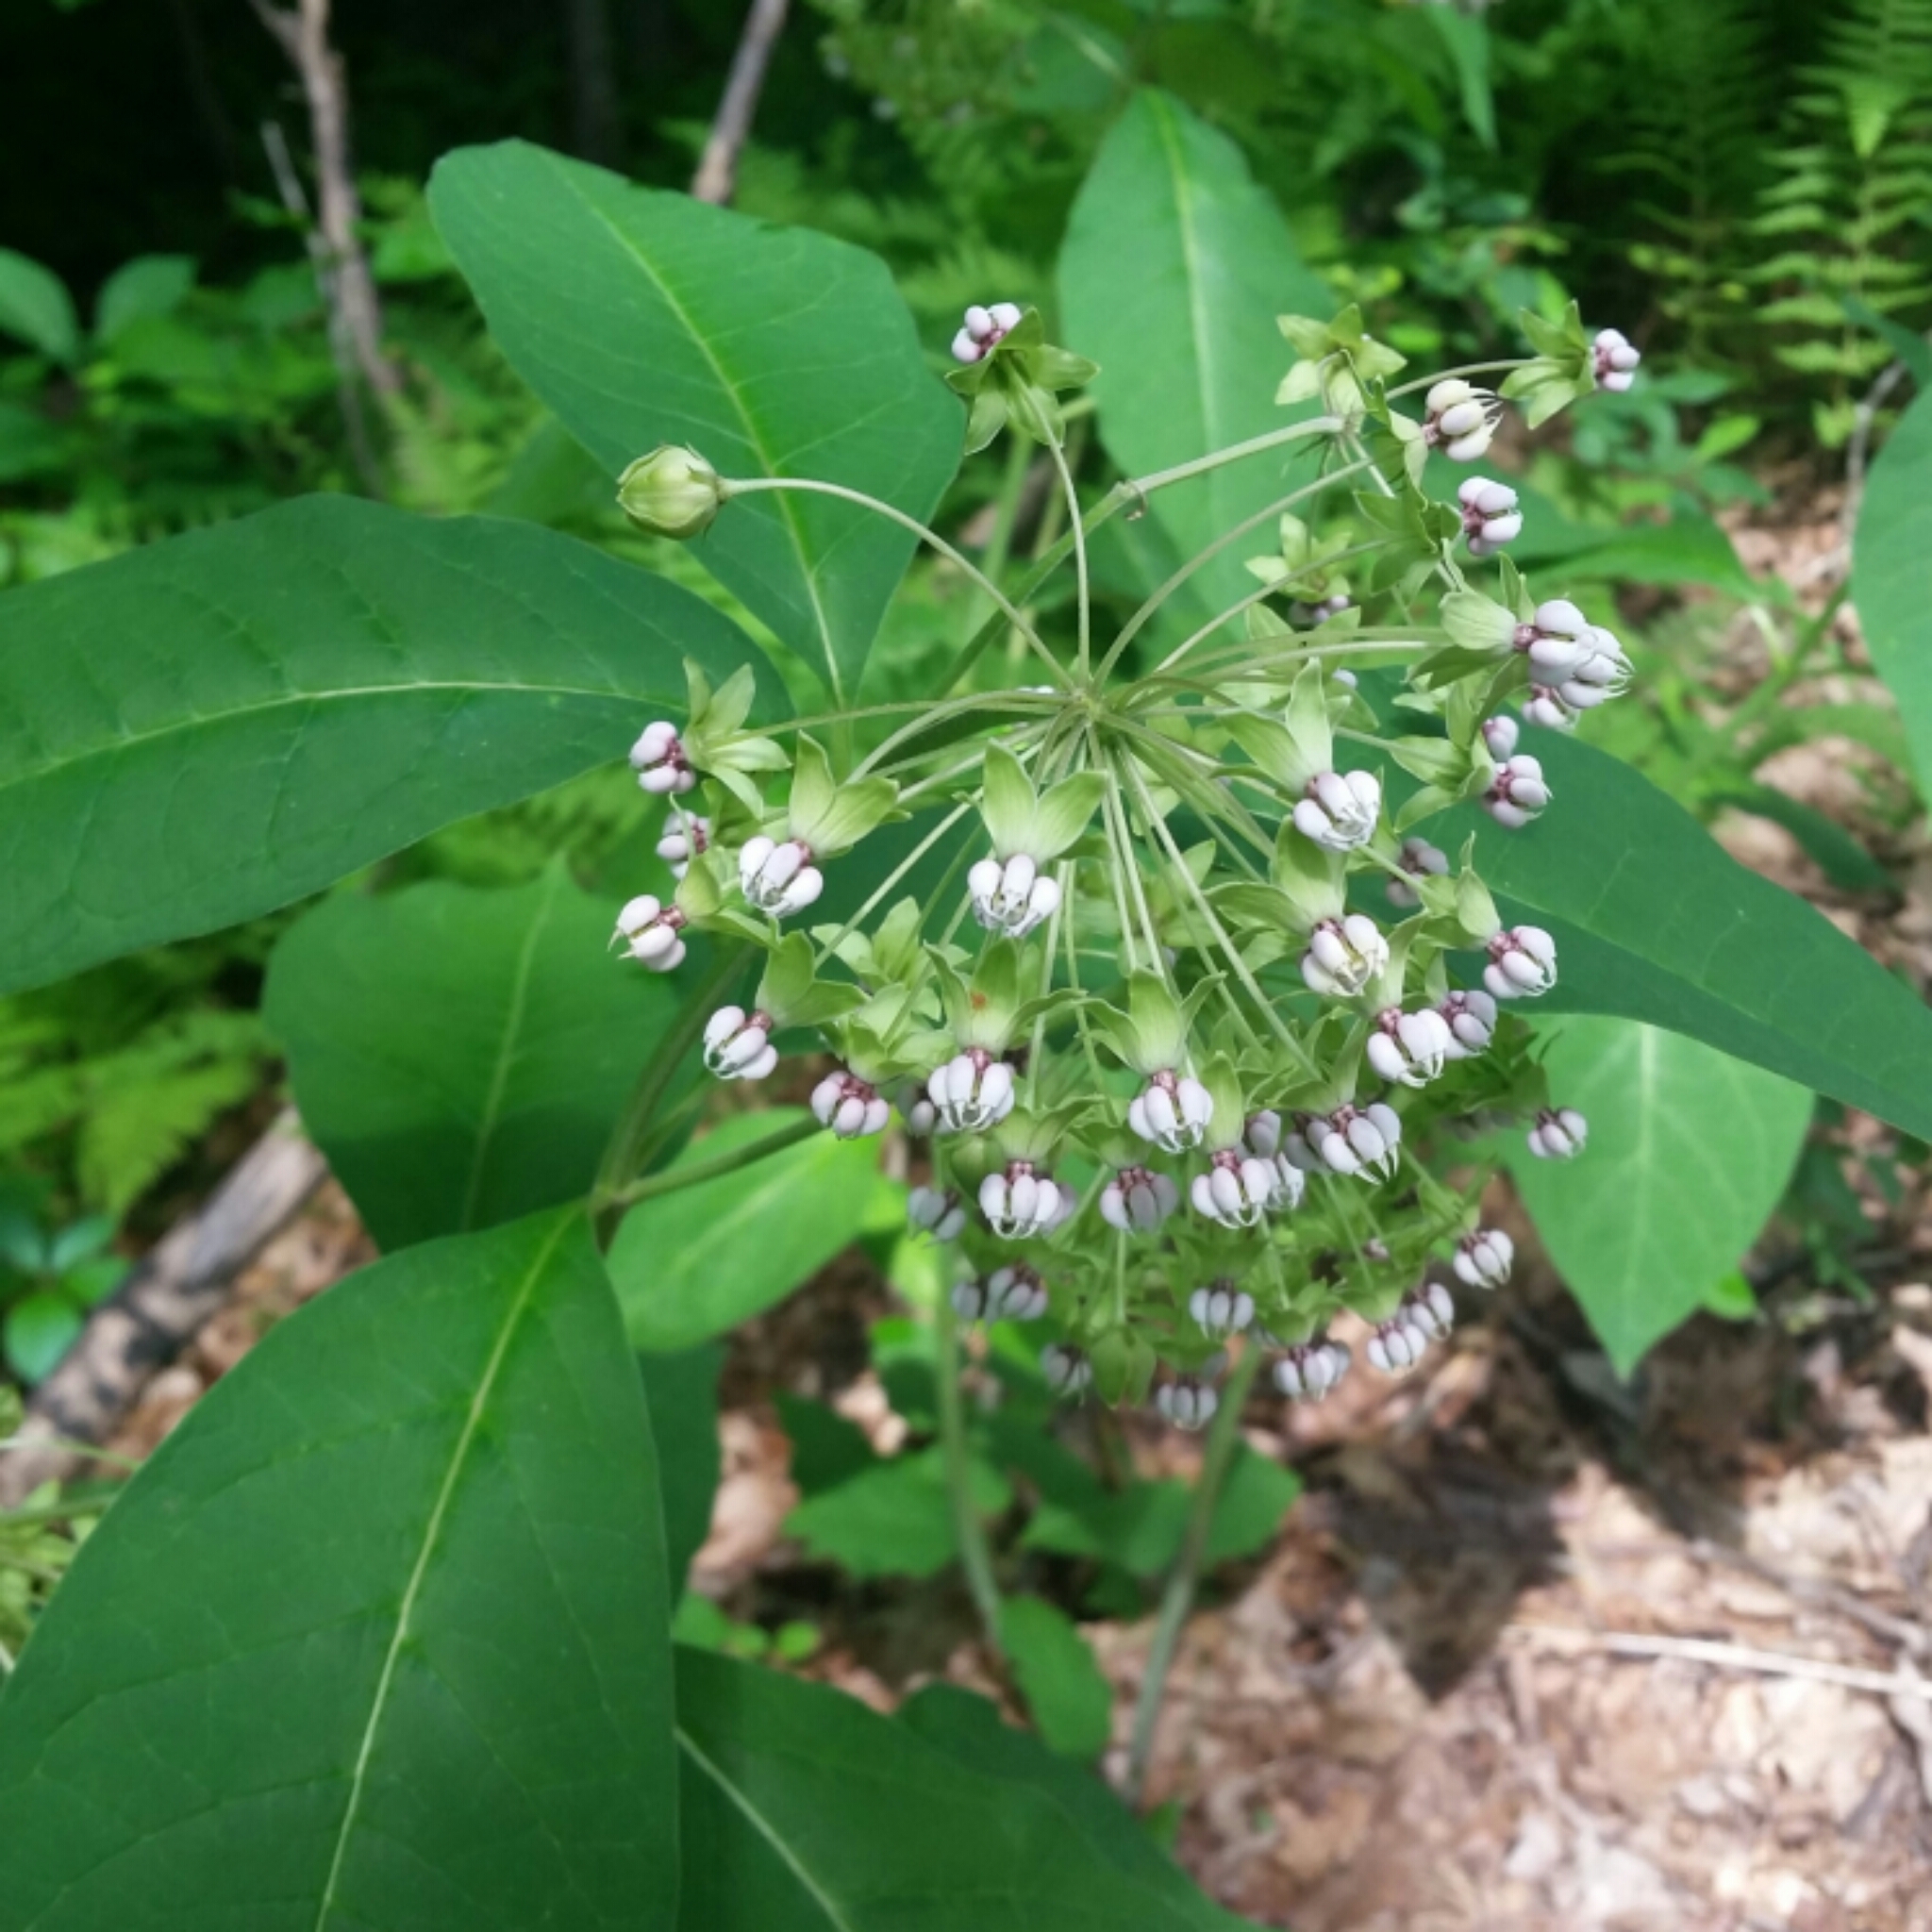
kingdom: Plantae
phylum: Tracheophyta
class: Magnoliopsida
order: Gentianales
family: Apocynaceae
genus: Asclepias
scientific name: Asclepias exaltata
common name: Poke milkweed
